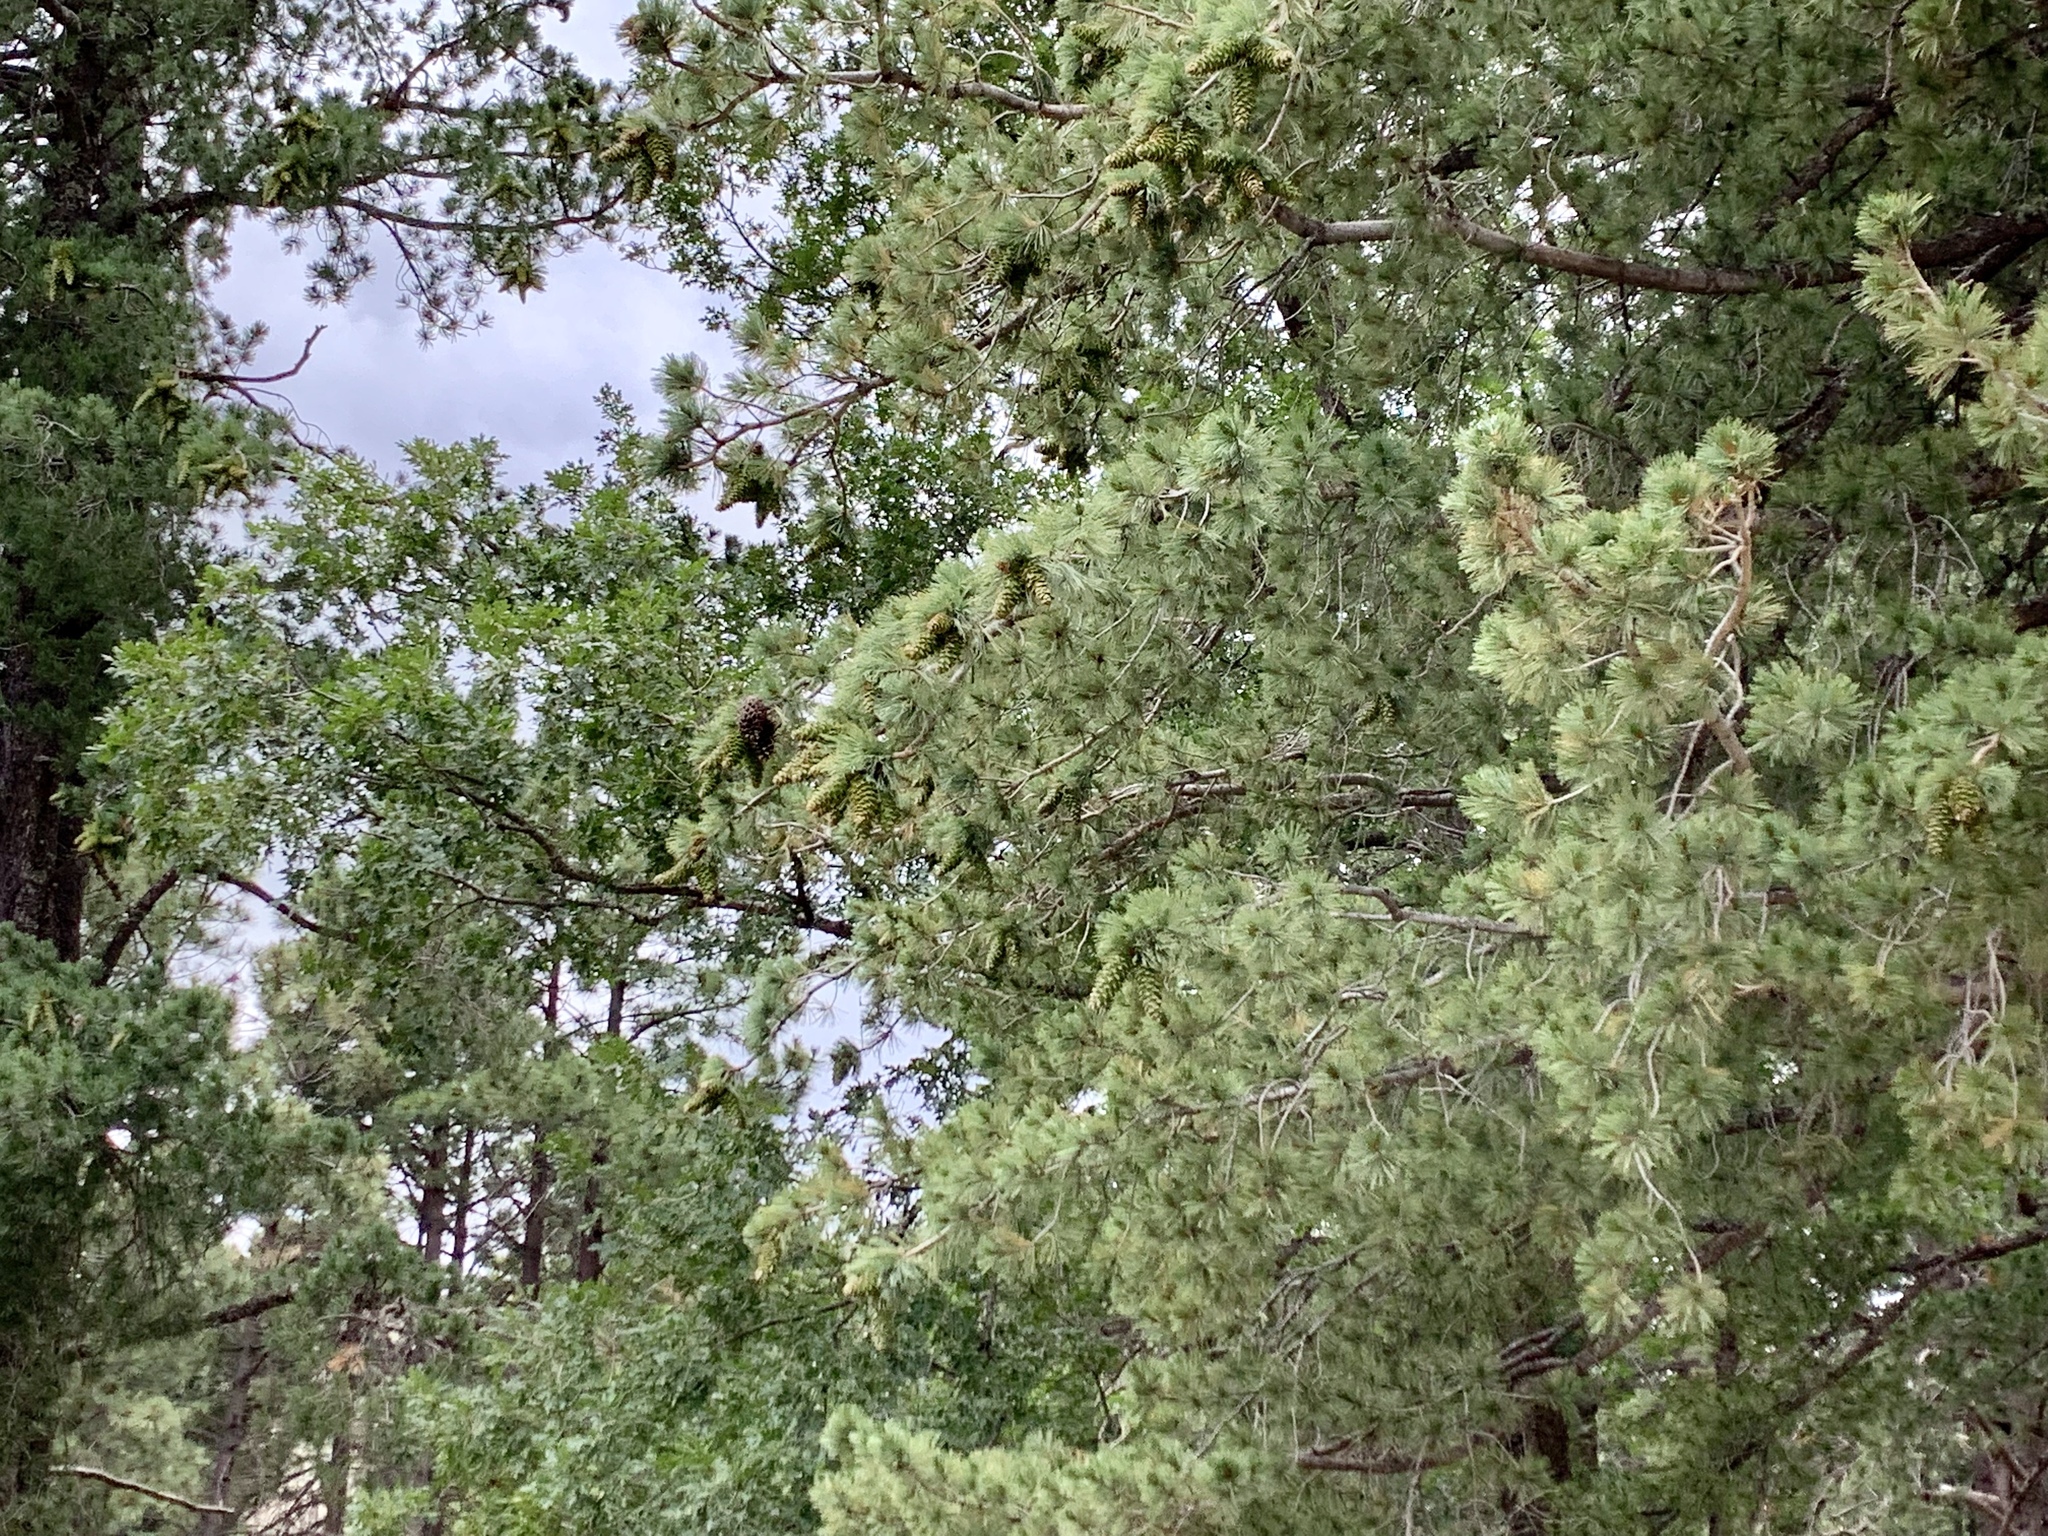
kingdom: Plantae
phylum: Tracheophyta
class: Pinopsida
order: Pinales
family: Pinaceae
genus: Pinus
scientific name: Pinus strobiformis
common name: Southwestern white pine
